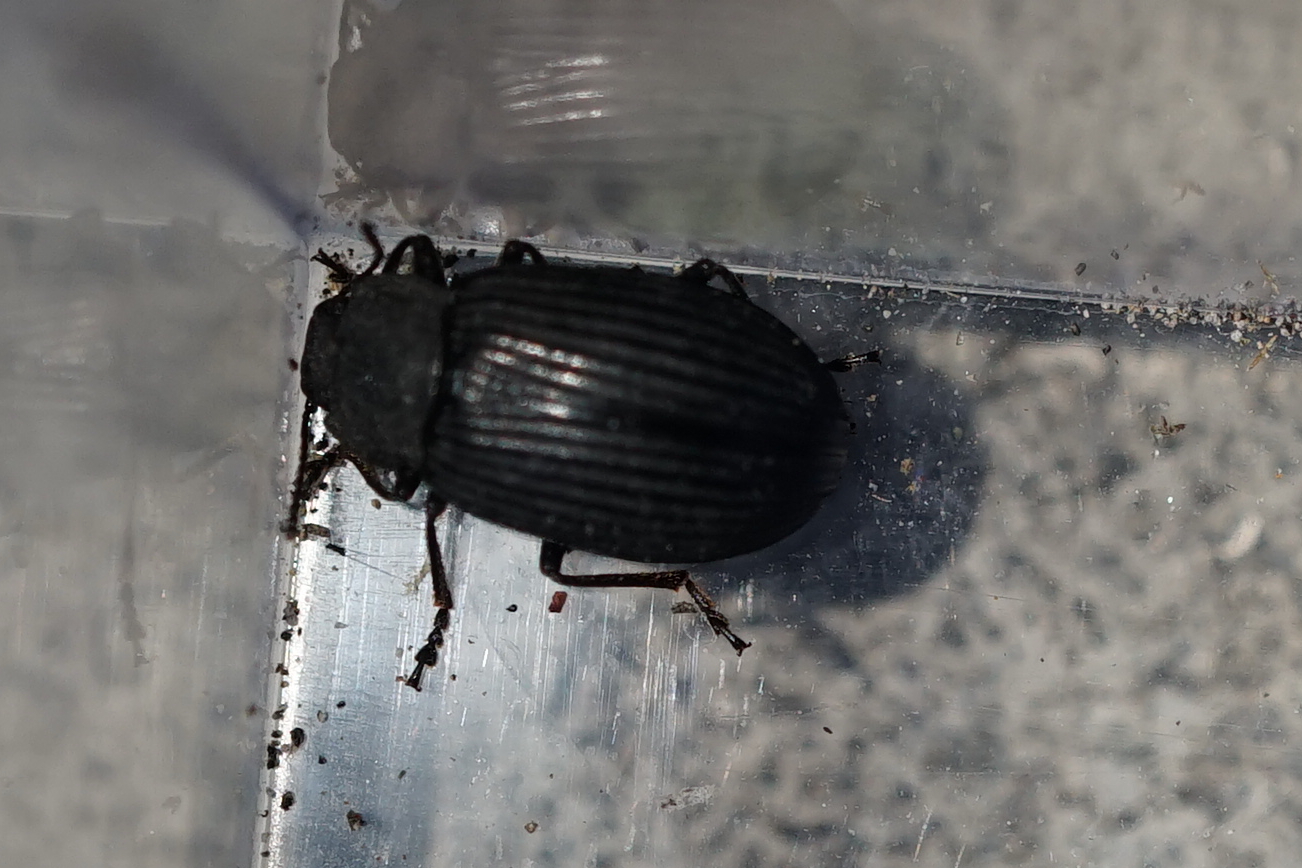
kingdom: Animalia
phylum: Arthropoda
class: Insecta
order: Coleoptera
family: Tenebrionidae
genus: Heterotarsus
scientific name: Heterotarsus carinula
